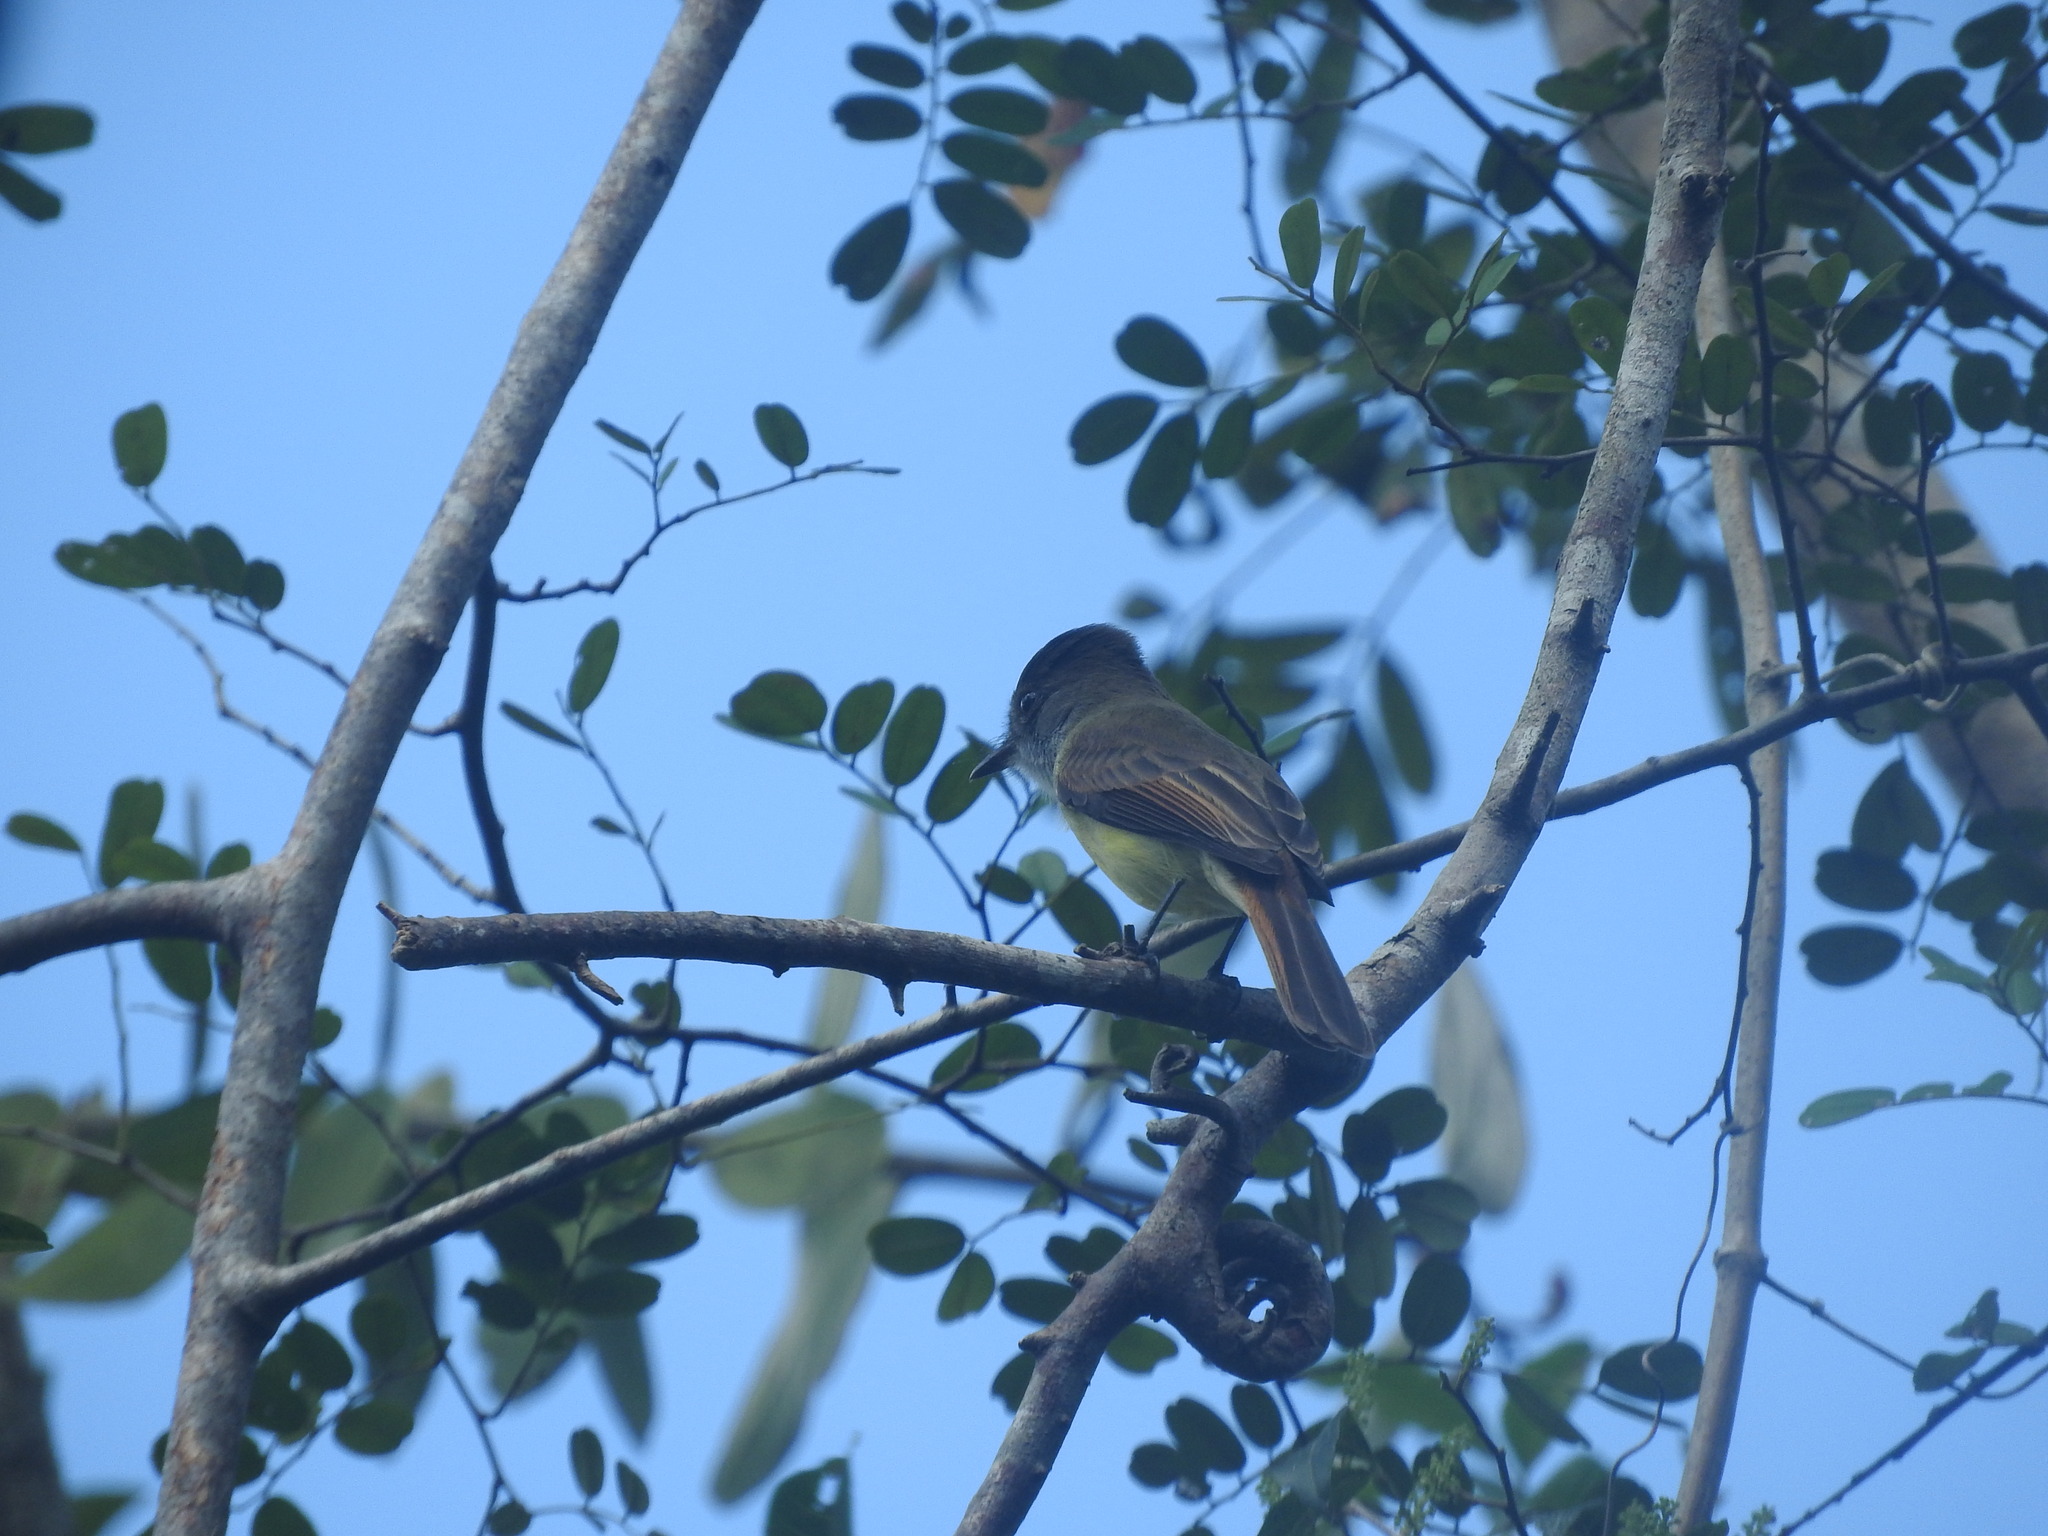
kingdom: Animalia
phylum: Chordata
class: Aves
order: Passeriformes
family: Tyrannidae
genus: Myiarchus
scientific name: Myiarchus tuberculifer
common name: Dusky-capped flycatcher
